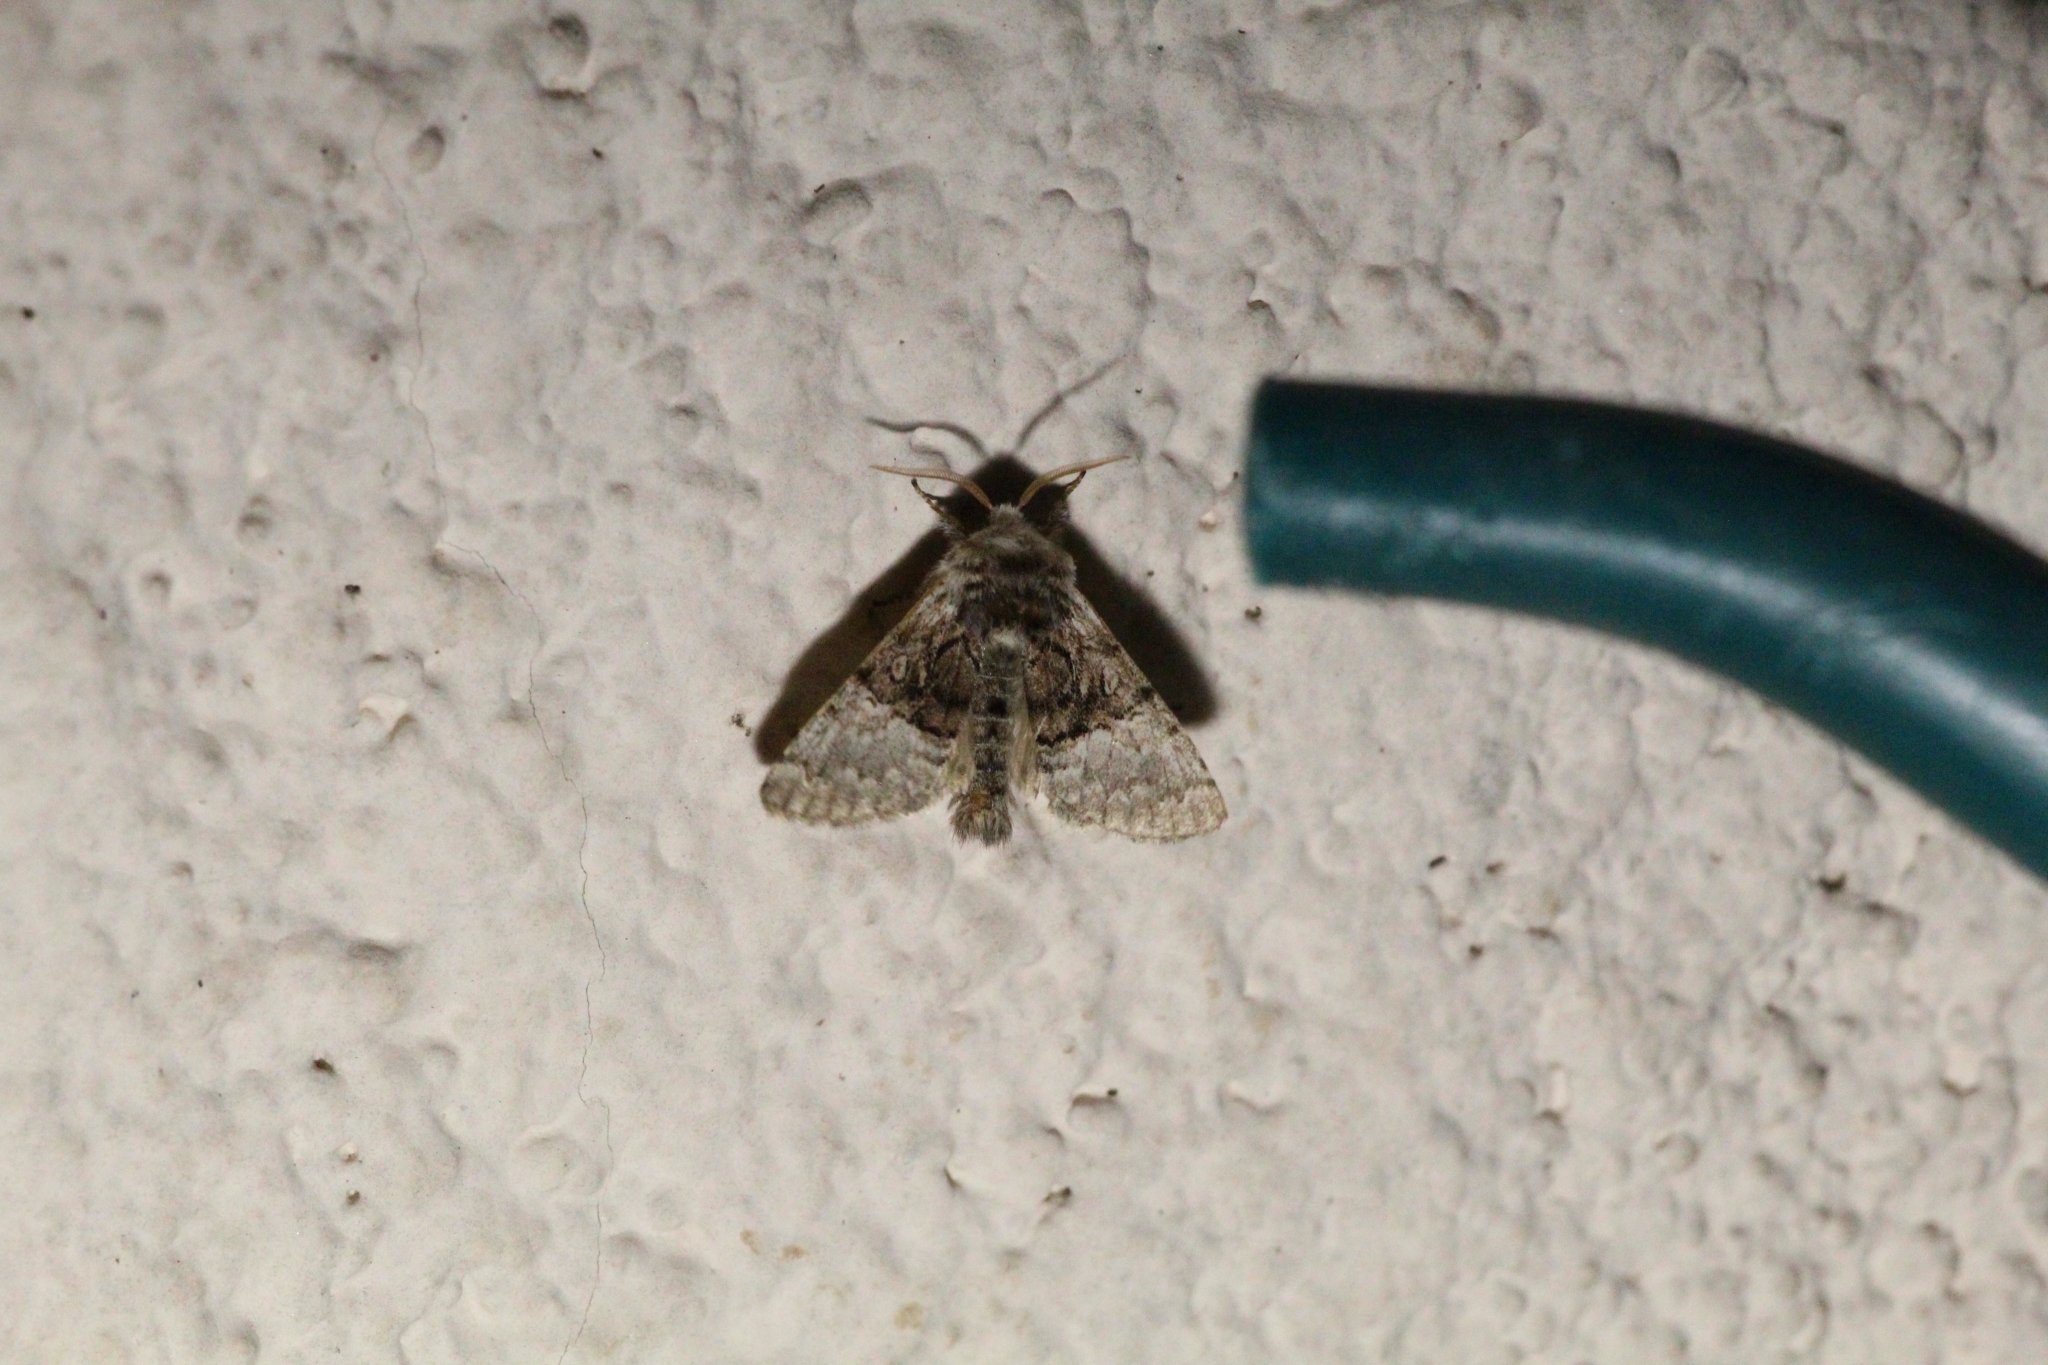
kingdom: Animalia
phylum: Arthropoda
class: Insecta
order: Lepidoptera
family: Noctuidae
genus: Colocasia
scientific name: Colocasia coryli
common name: Nut-tree tussock
